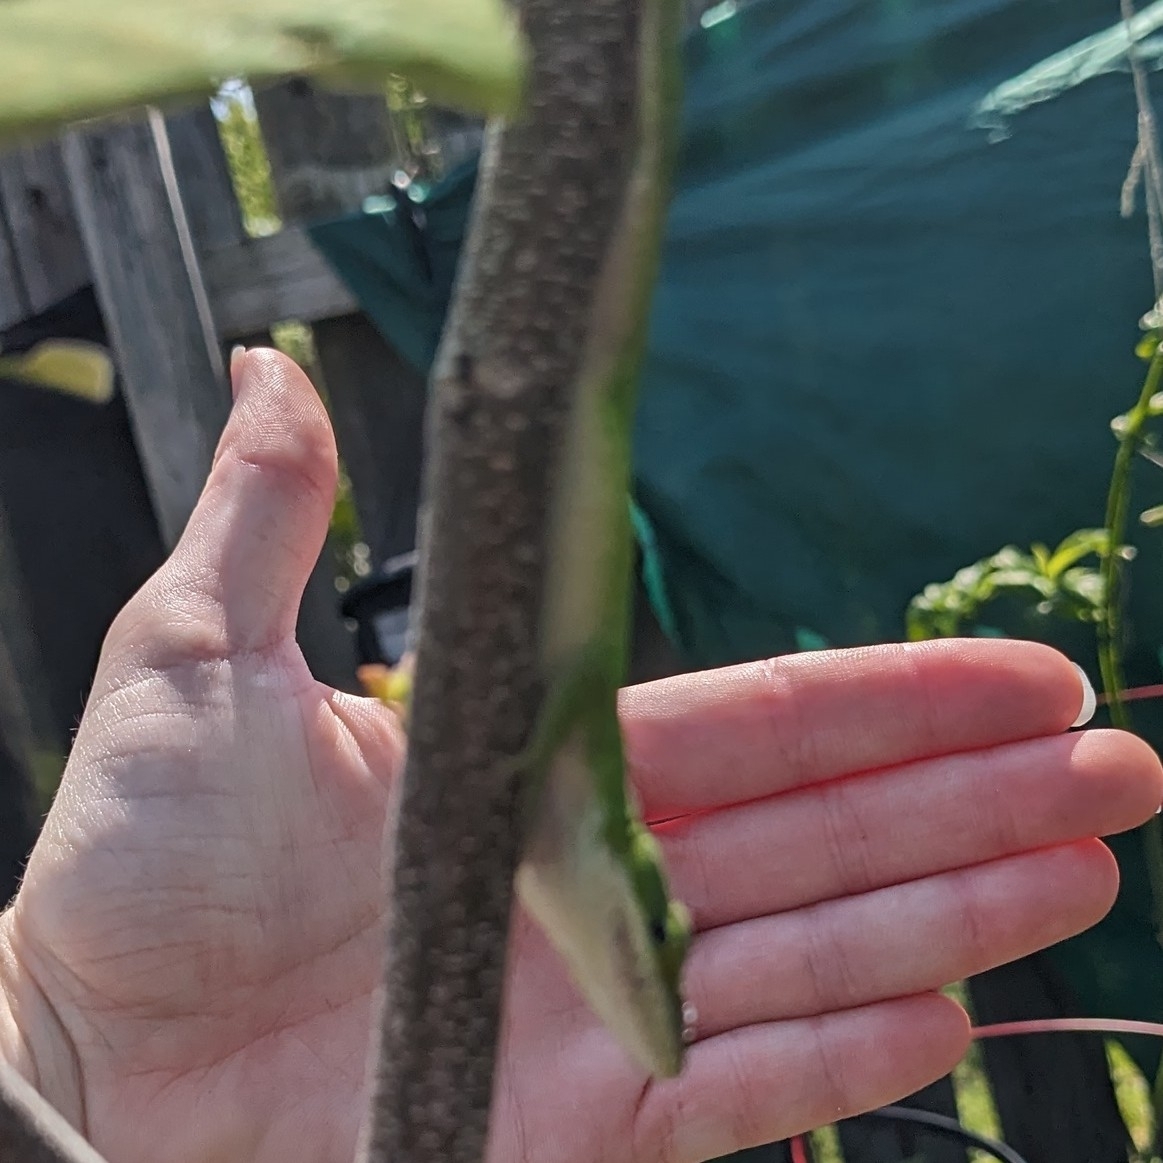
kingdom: Animalia
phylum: Chordata
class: Squamata
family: Dactyloidae
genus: Anolis
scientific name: Anolis carolinensis
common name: Green anole
